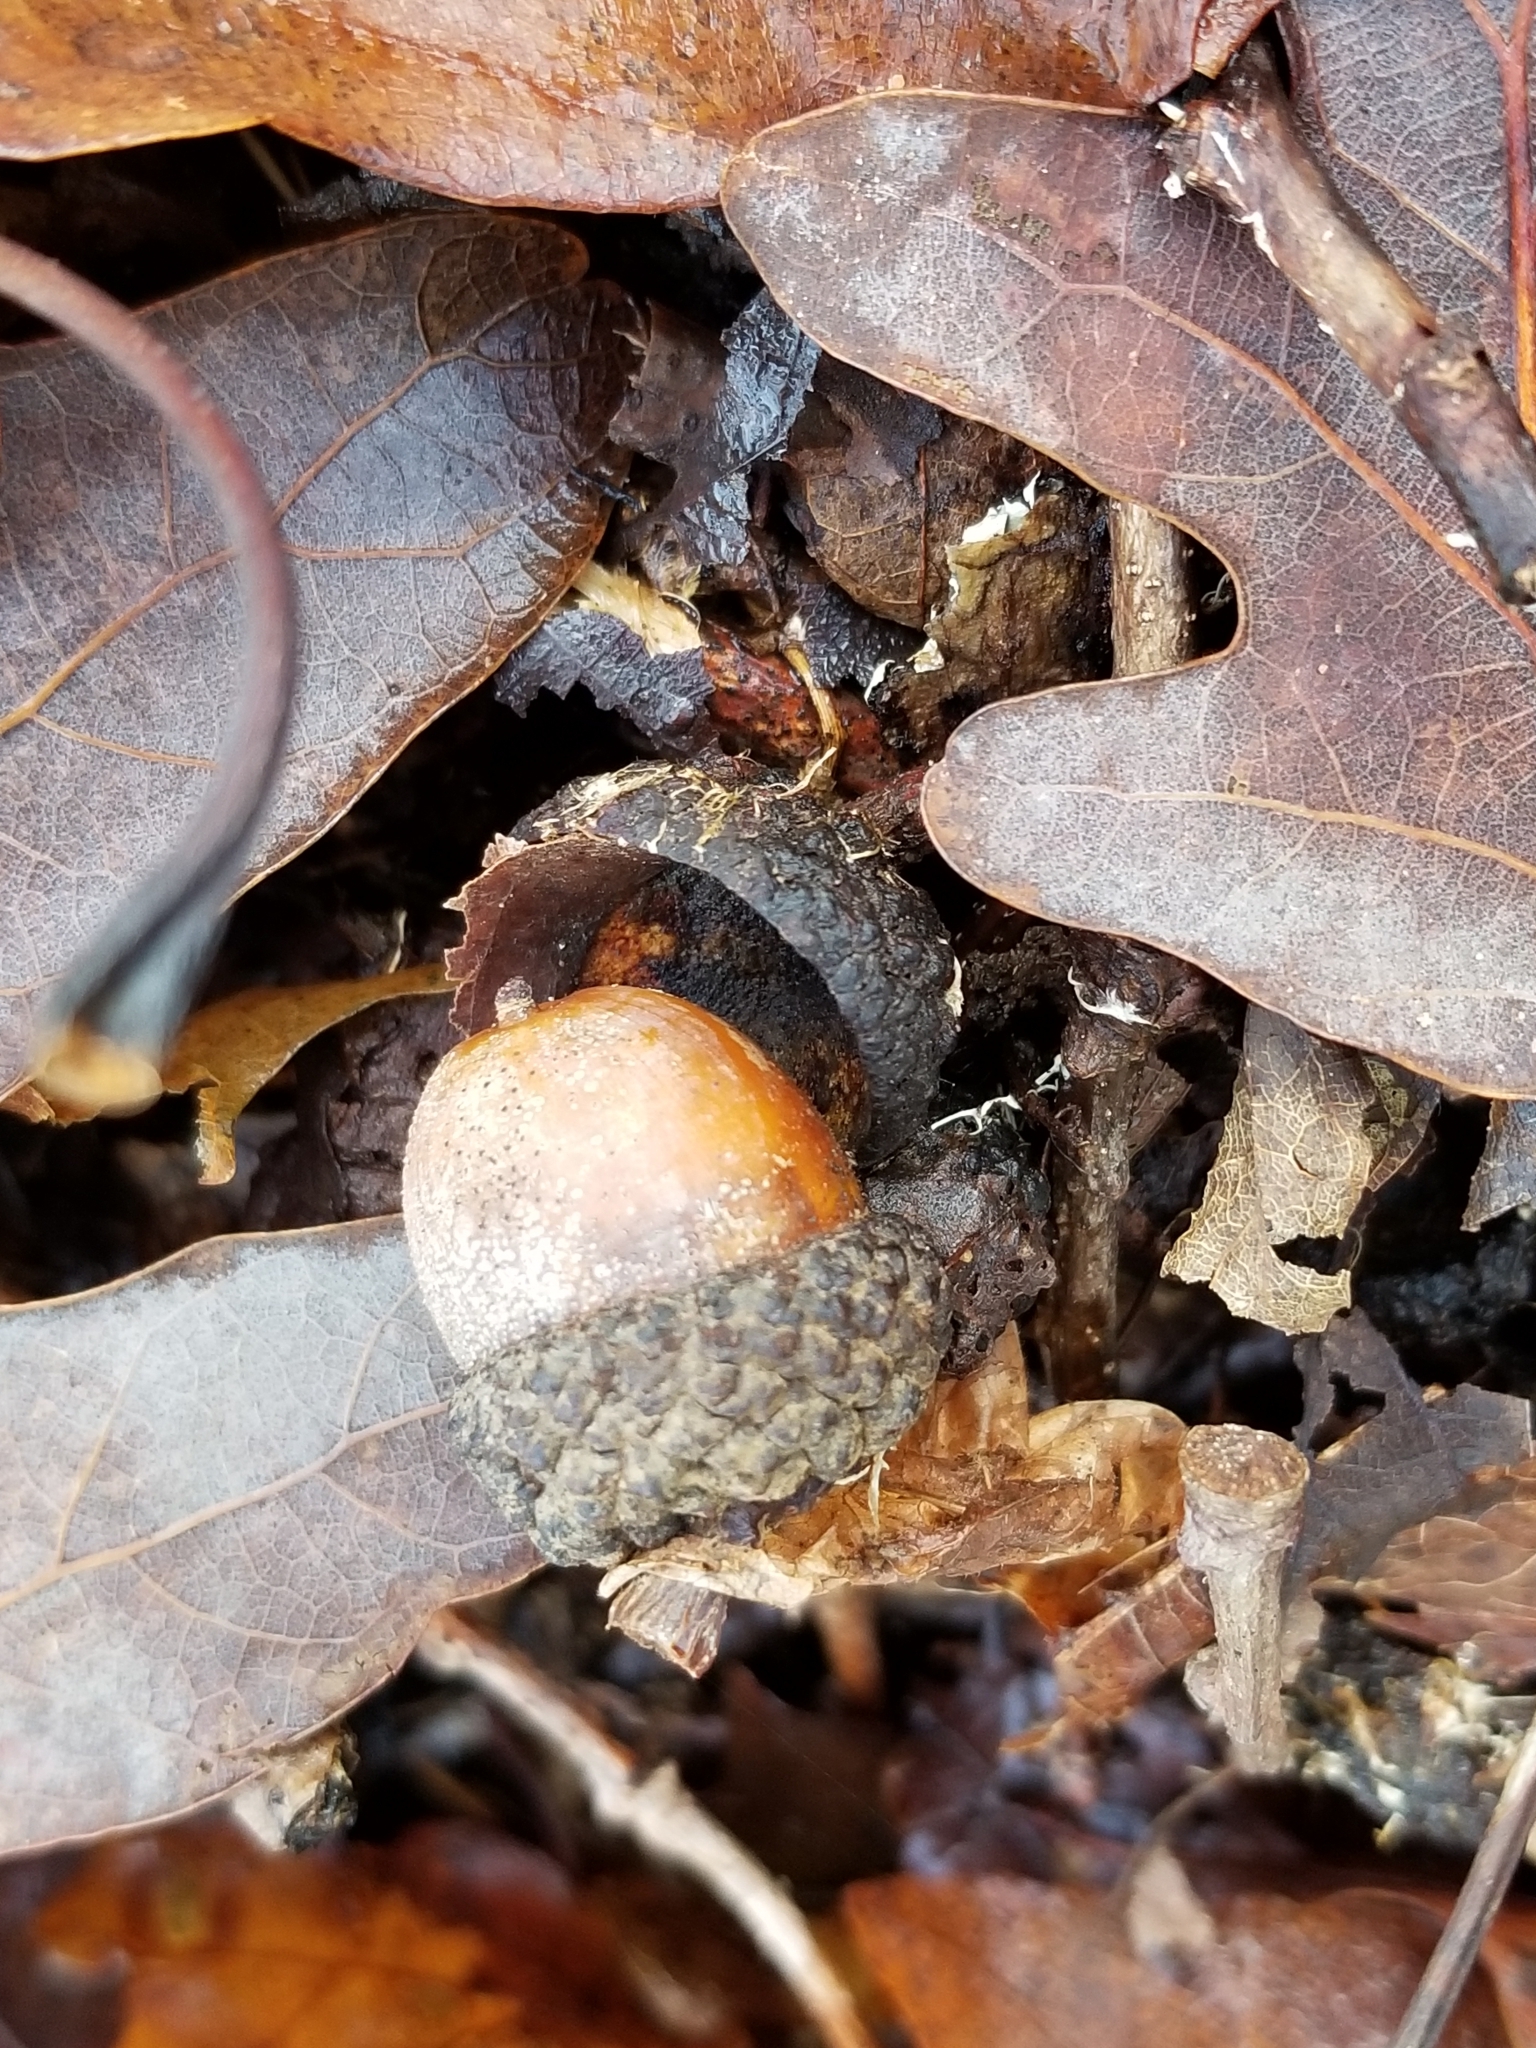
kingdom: Plantae
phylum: Tracheophyta
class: Magnoliopsida
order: Fagales
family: Fagaceae
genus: Quercus
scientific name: Quercus alba
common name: White oak
